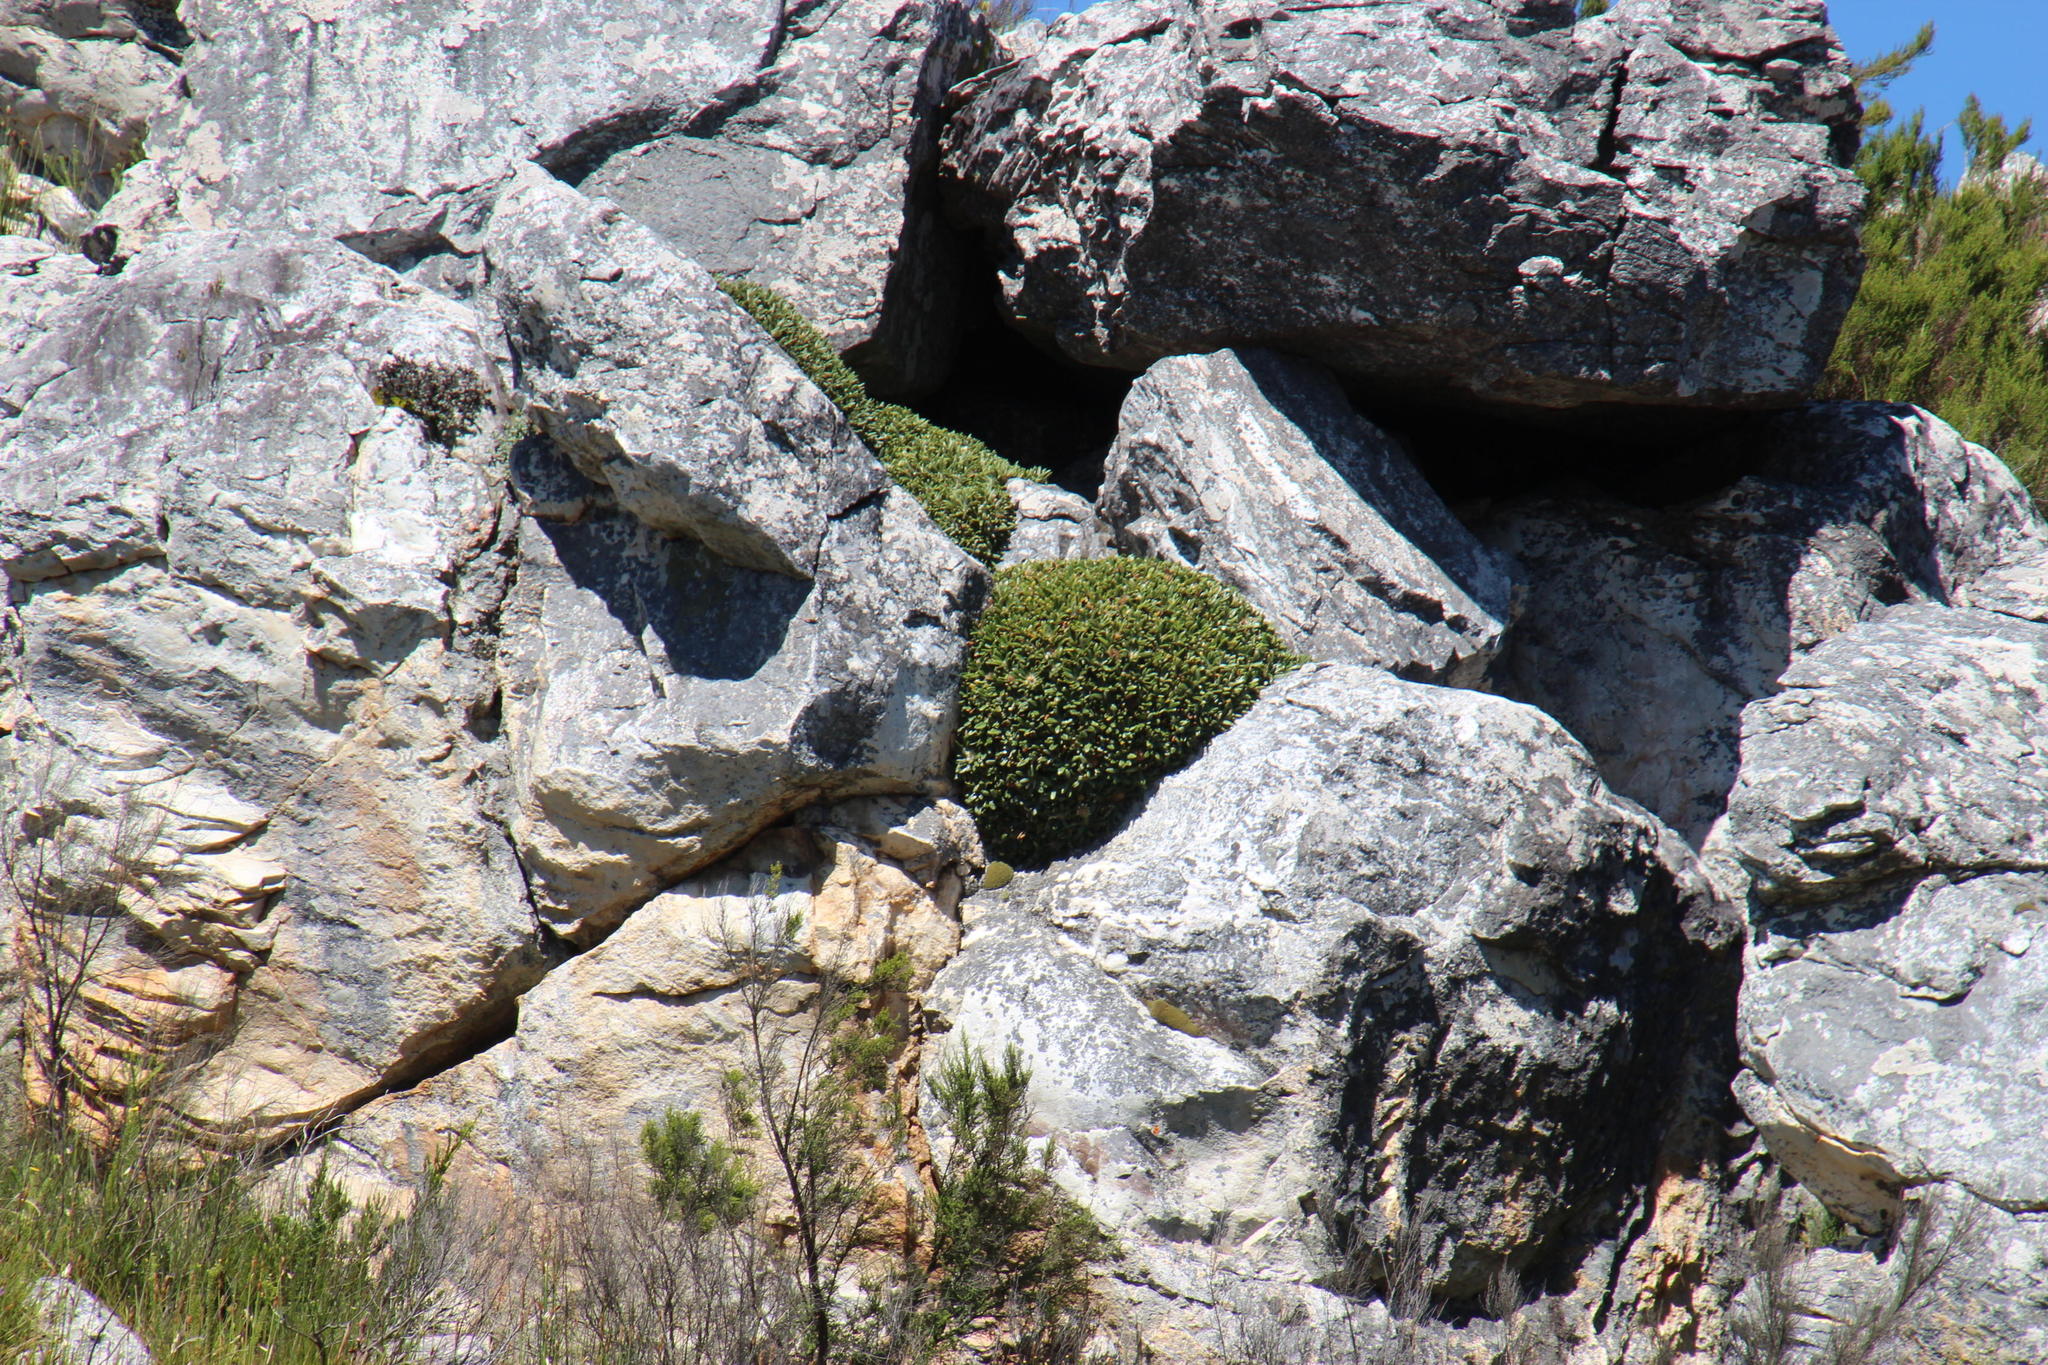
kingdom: Plantae
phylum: Tracheophyta
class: Magnoliopsida
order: Asterales
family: Asteraceae
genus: Oldenburgia
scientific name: Oldenburgia paradoxa
